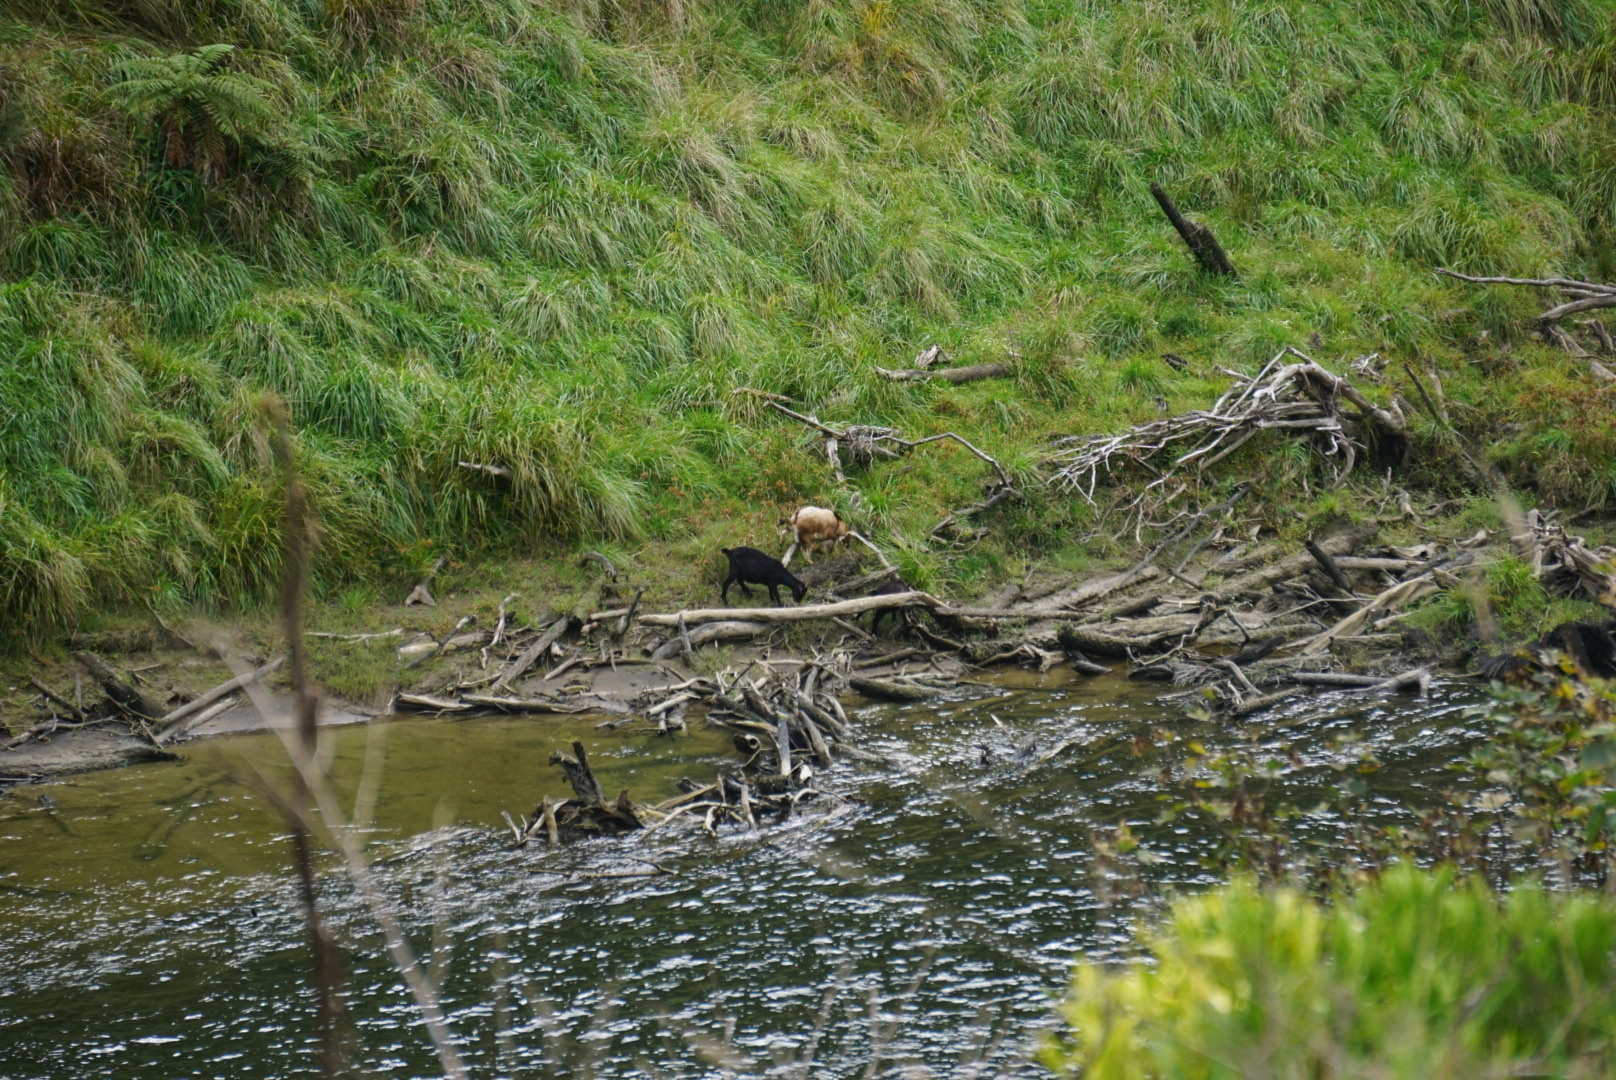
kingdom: Animalia
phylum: Chordata
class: Mammalia
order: Artiodactyla
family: Bovidae
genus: Capra
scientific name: Capra hircus
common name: Domestic goat
